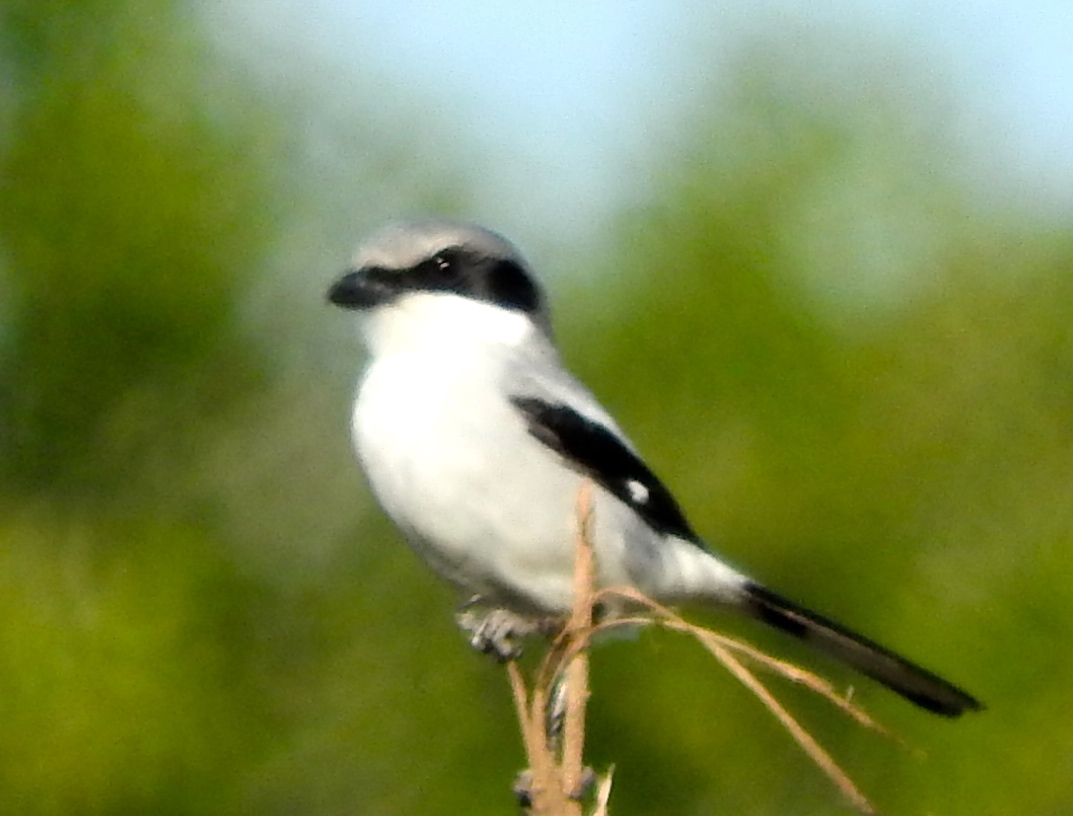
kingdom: Animalia
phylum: Chordata
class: Aves
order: Passeriformes
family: Laniidae
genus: Lanius
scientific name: Lanius ludovicianus
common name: Loggerhead shrike
